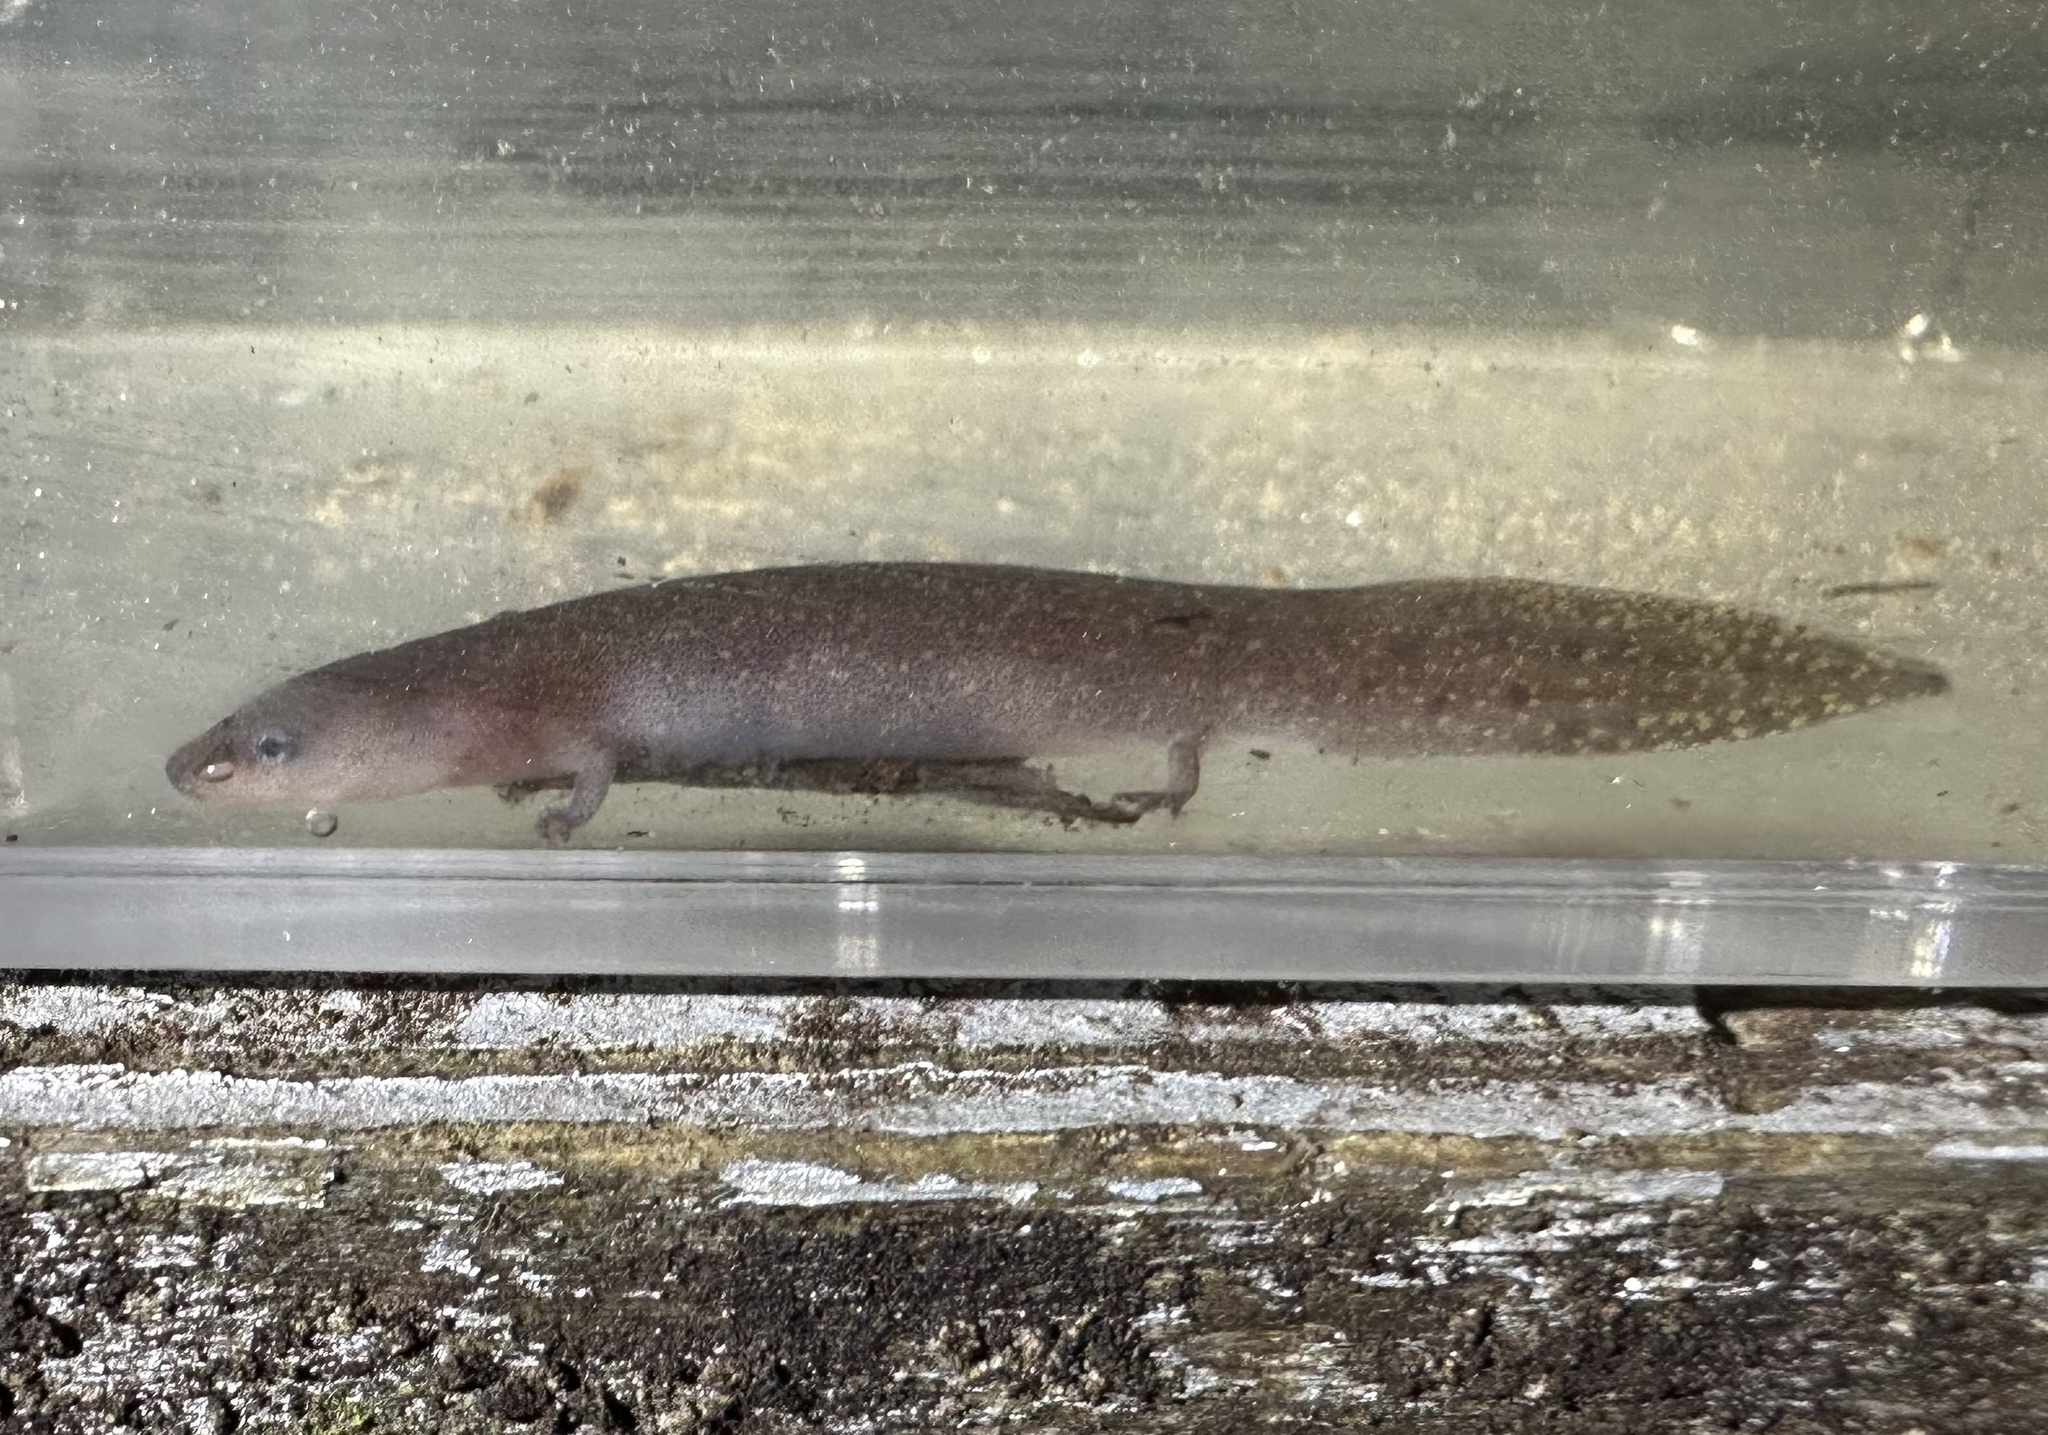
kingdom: Animalia
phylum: Chordata
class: Amphibia
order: Caudata
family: Proteidae
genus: Necturus
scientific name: Necturus punctatus
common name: Dwarf waterdog
